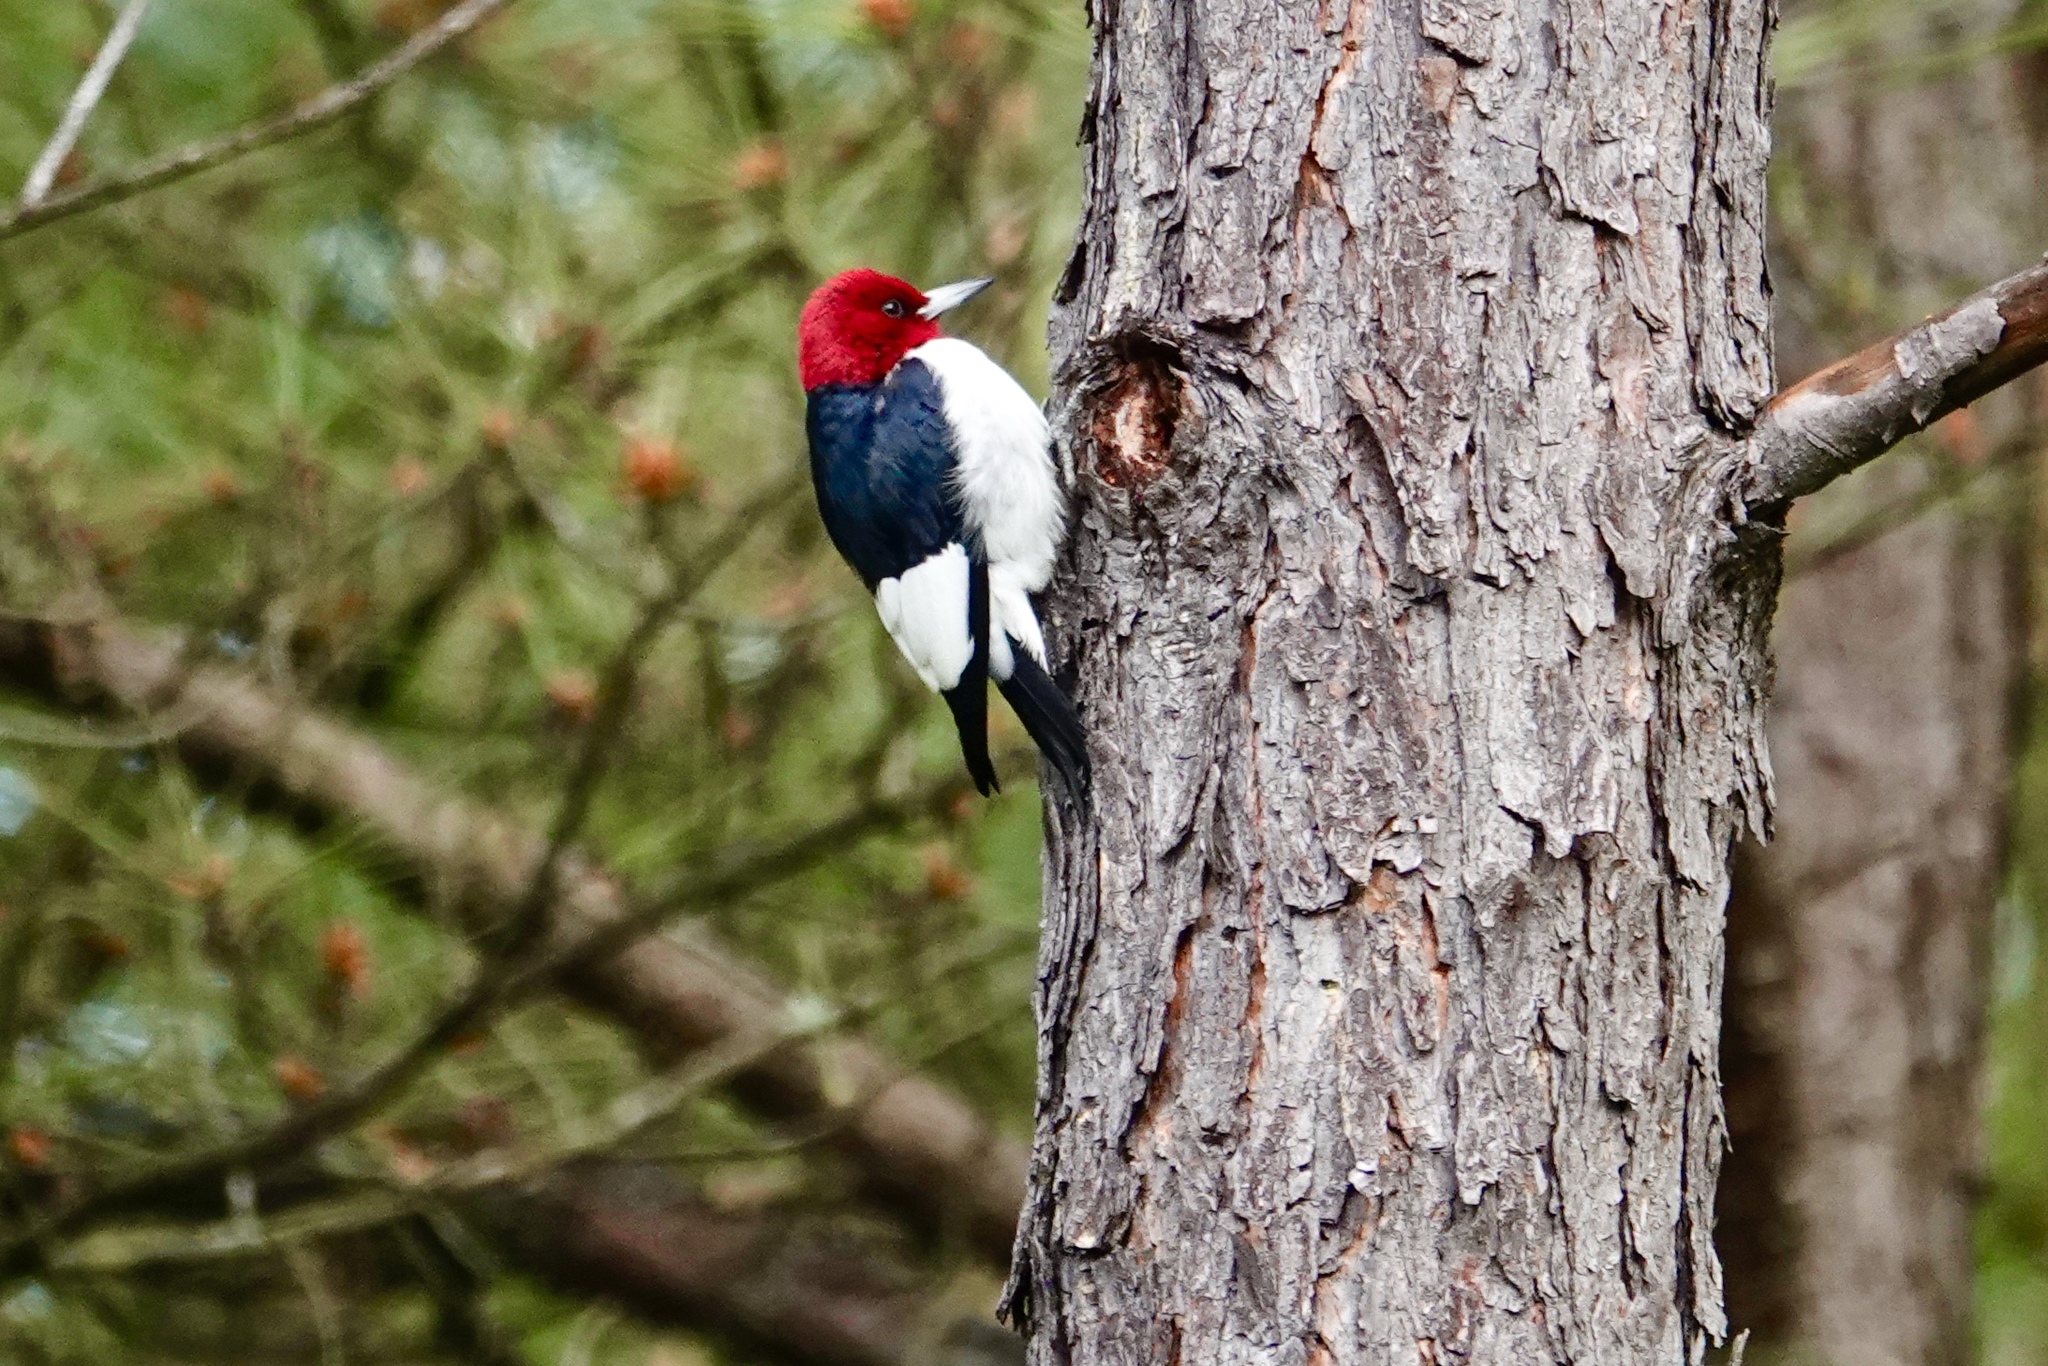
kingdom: Animalia
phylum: Chordata
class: Aves
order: Piciformes
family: Picidae
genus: Melanerpes
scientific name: Melanerpes erythrocephalus
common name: Red-headed woodpecker
